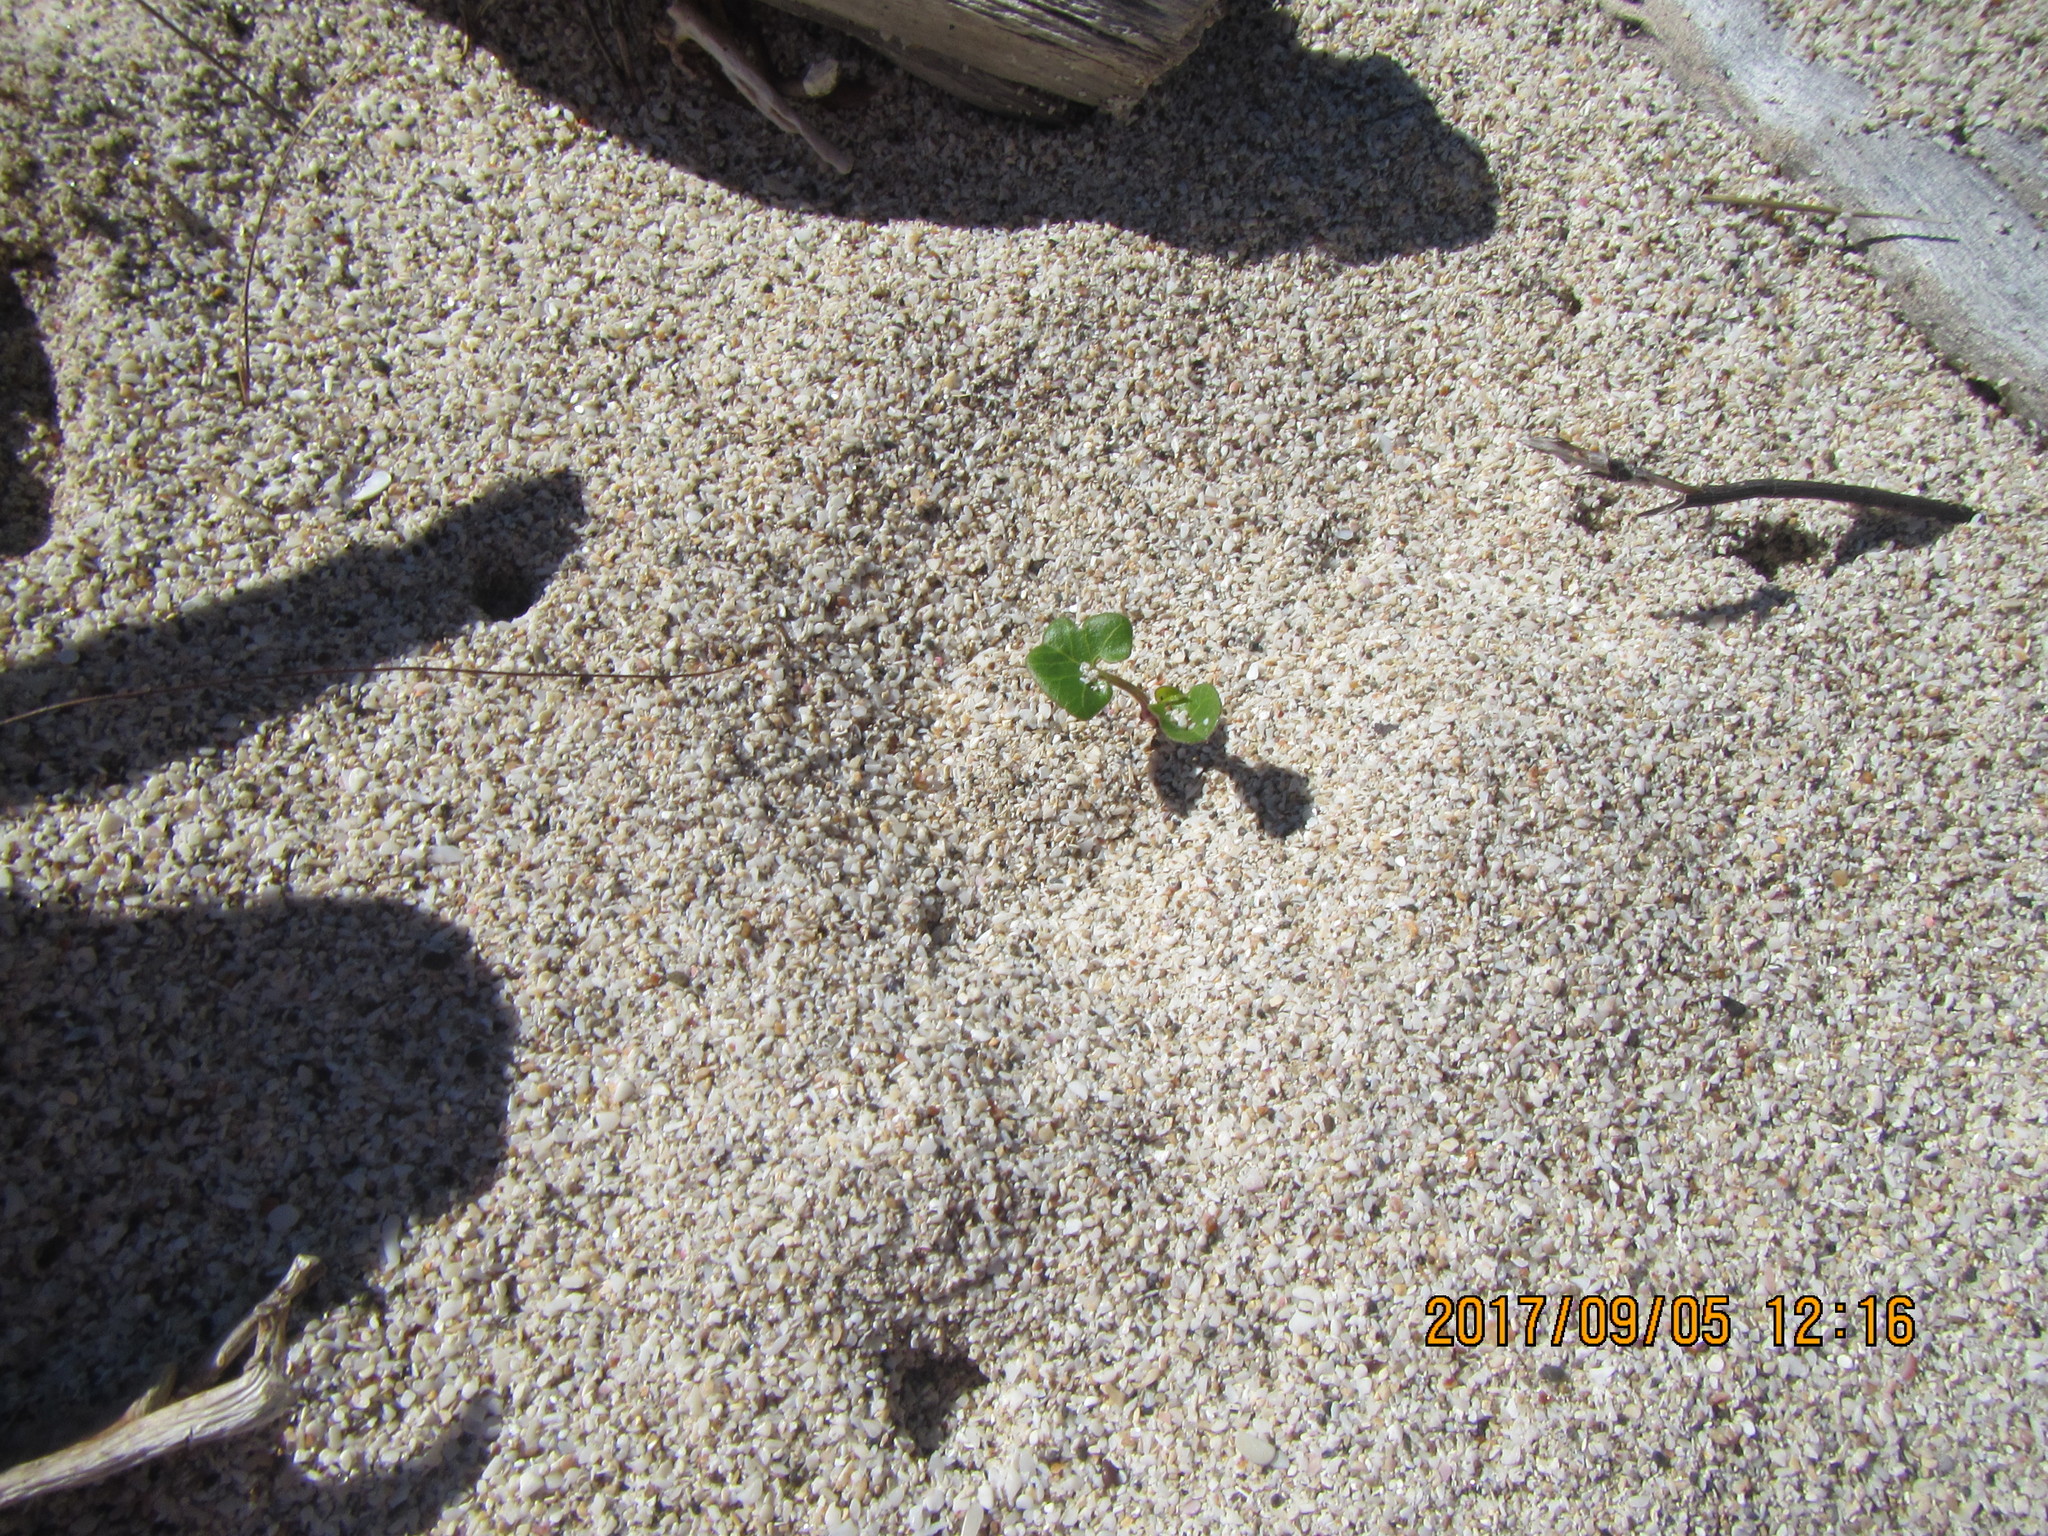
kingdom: Plantae
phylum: Tracheophyta
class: Magnoliopsida
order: Solanales
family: Convolvulaceae
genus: Calystegia
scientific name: Calystegia soldanella
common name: Sea bindweed
